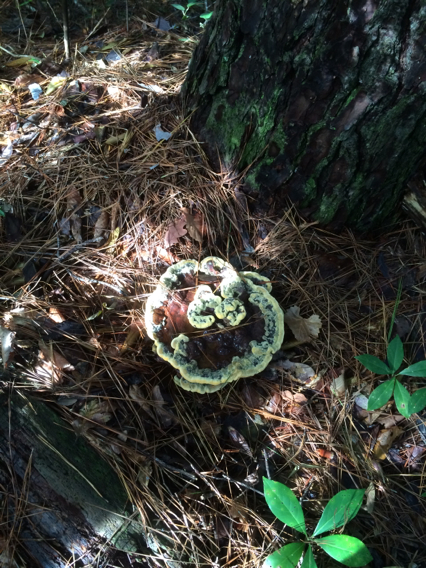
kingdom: Fungi
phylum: Basidiomycota
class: Agaricomycetes
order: Polyporales
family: Laetiporaceae
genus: Phaeolus
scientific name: Phaeolus schweinitzii
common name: Dyer's mazegill
